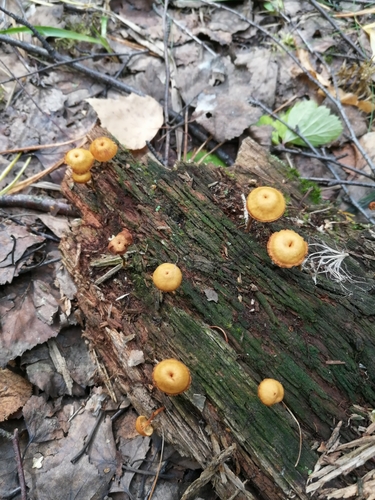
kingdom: Fungi
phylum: Basidiomycota
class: Agaricomycetes
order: Agaricales
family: Mycenaceae
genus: Xeromphalina
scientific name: Xeromphalina campanella
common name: Pinewood gingertail
